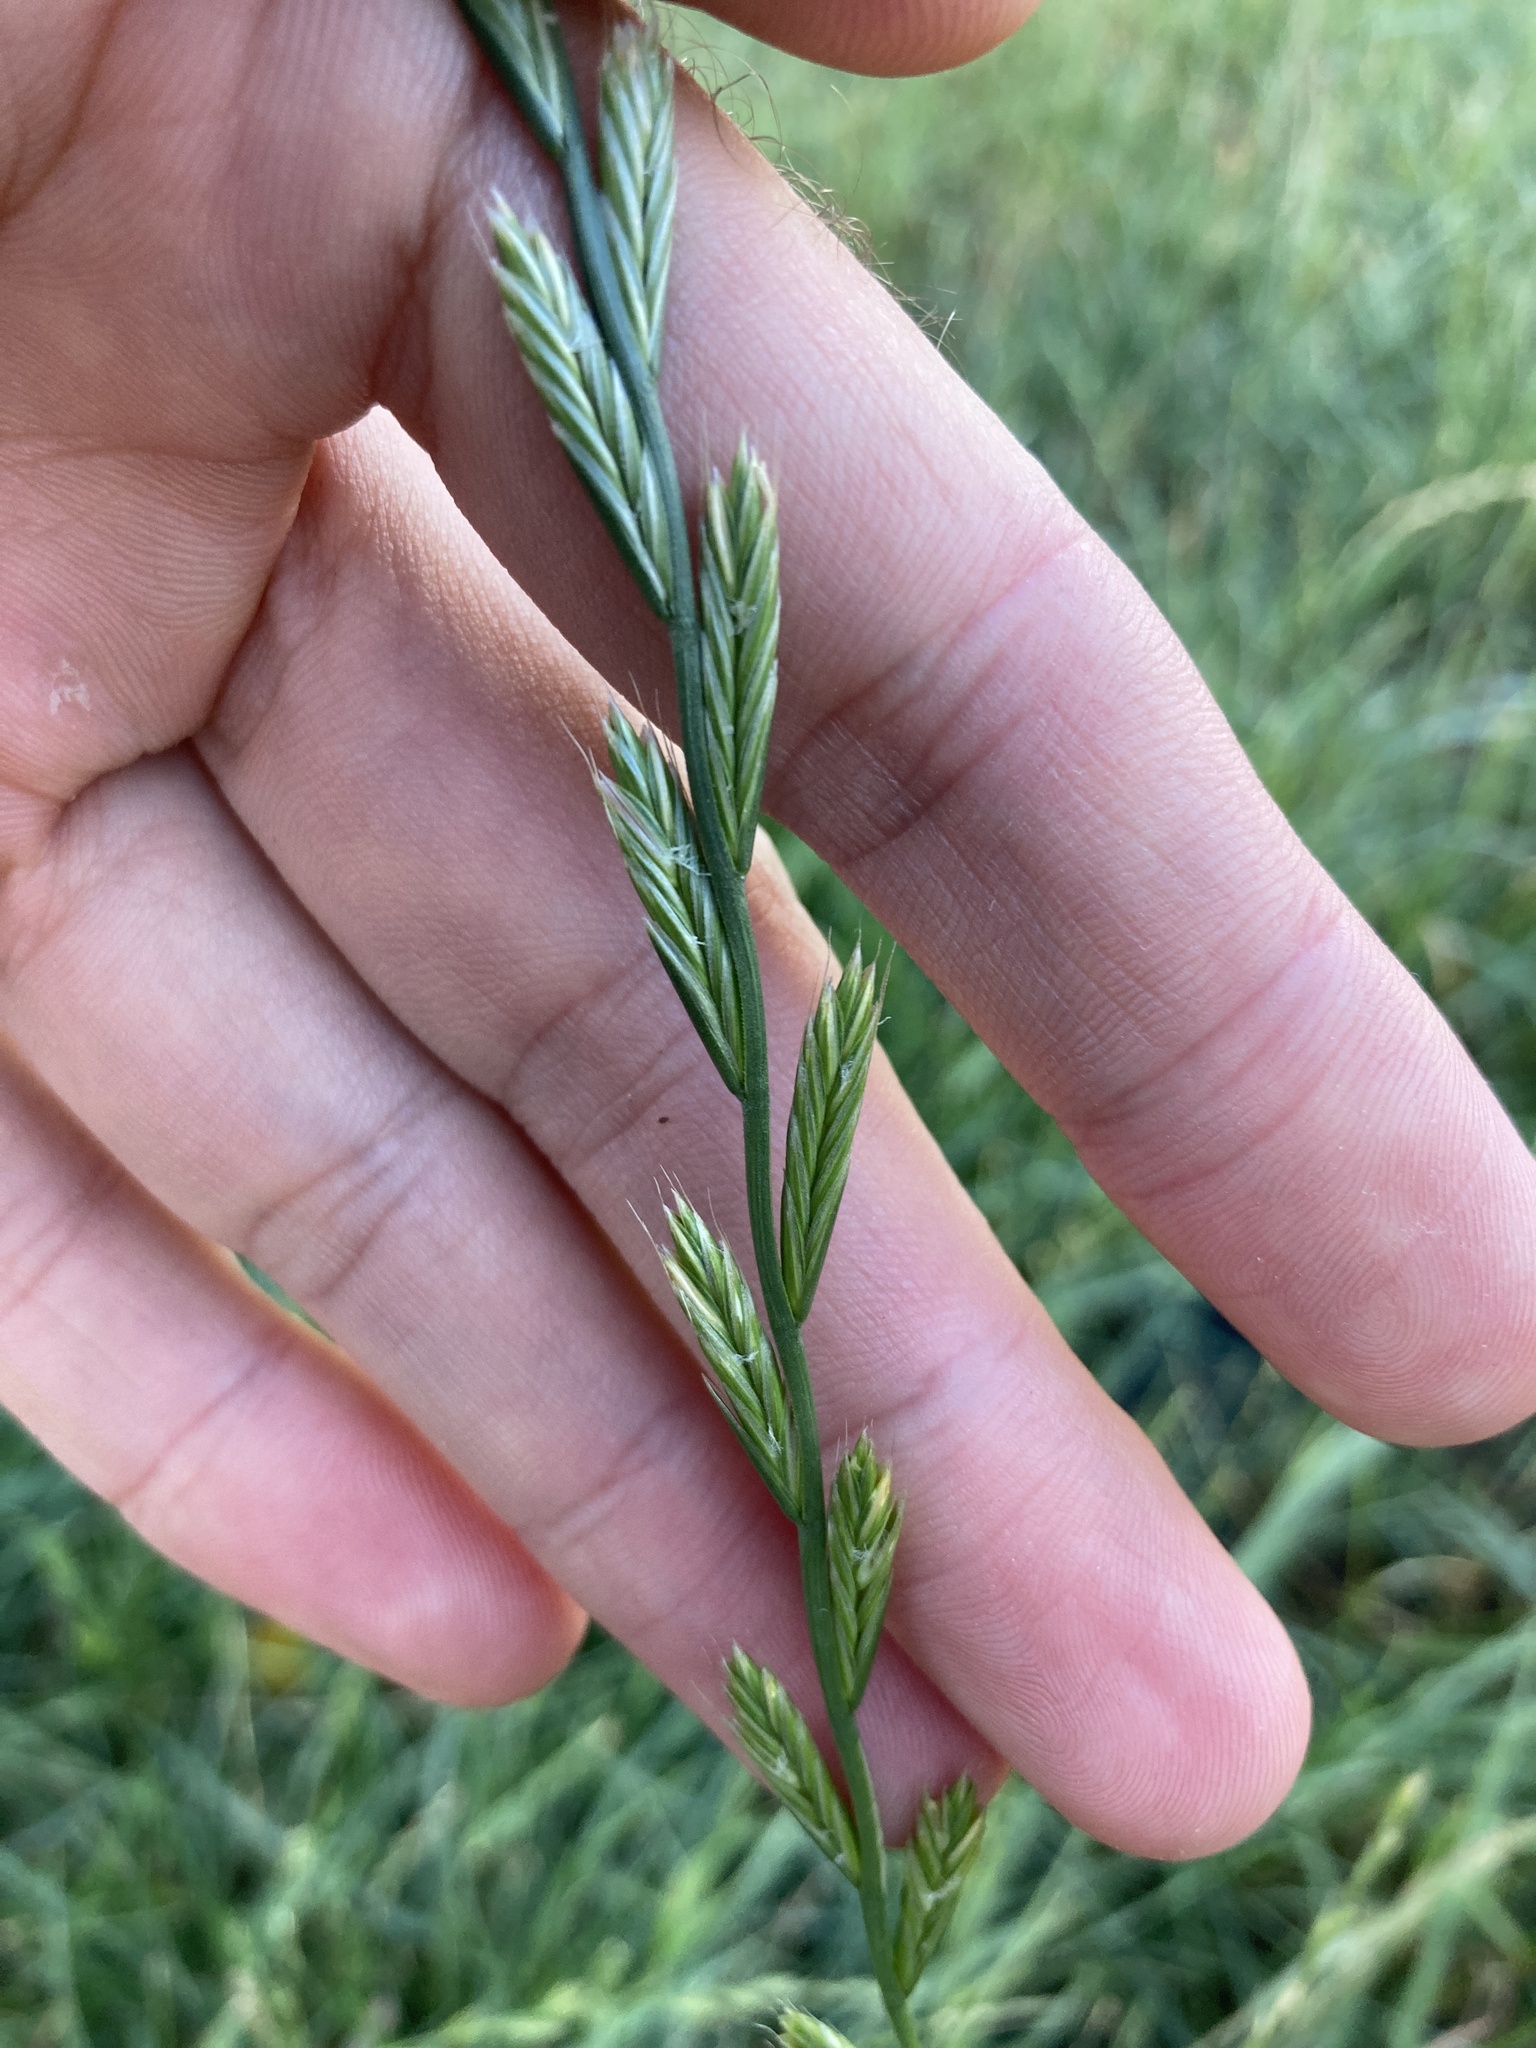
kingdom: Plantae
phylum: Tracheophyta
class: Liliopsida
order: Poales
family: Poaceae
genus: Lolium
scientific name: Lolium perenne
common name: Perennial ryegrass
